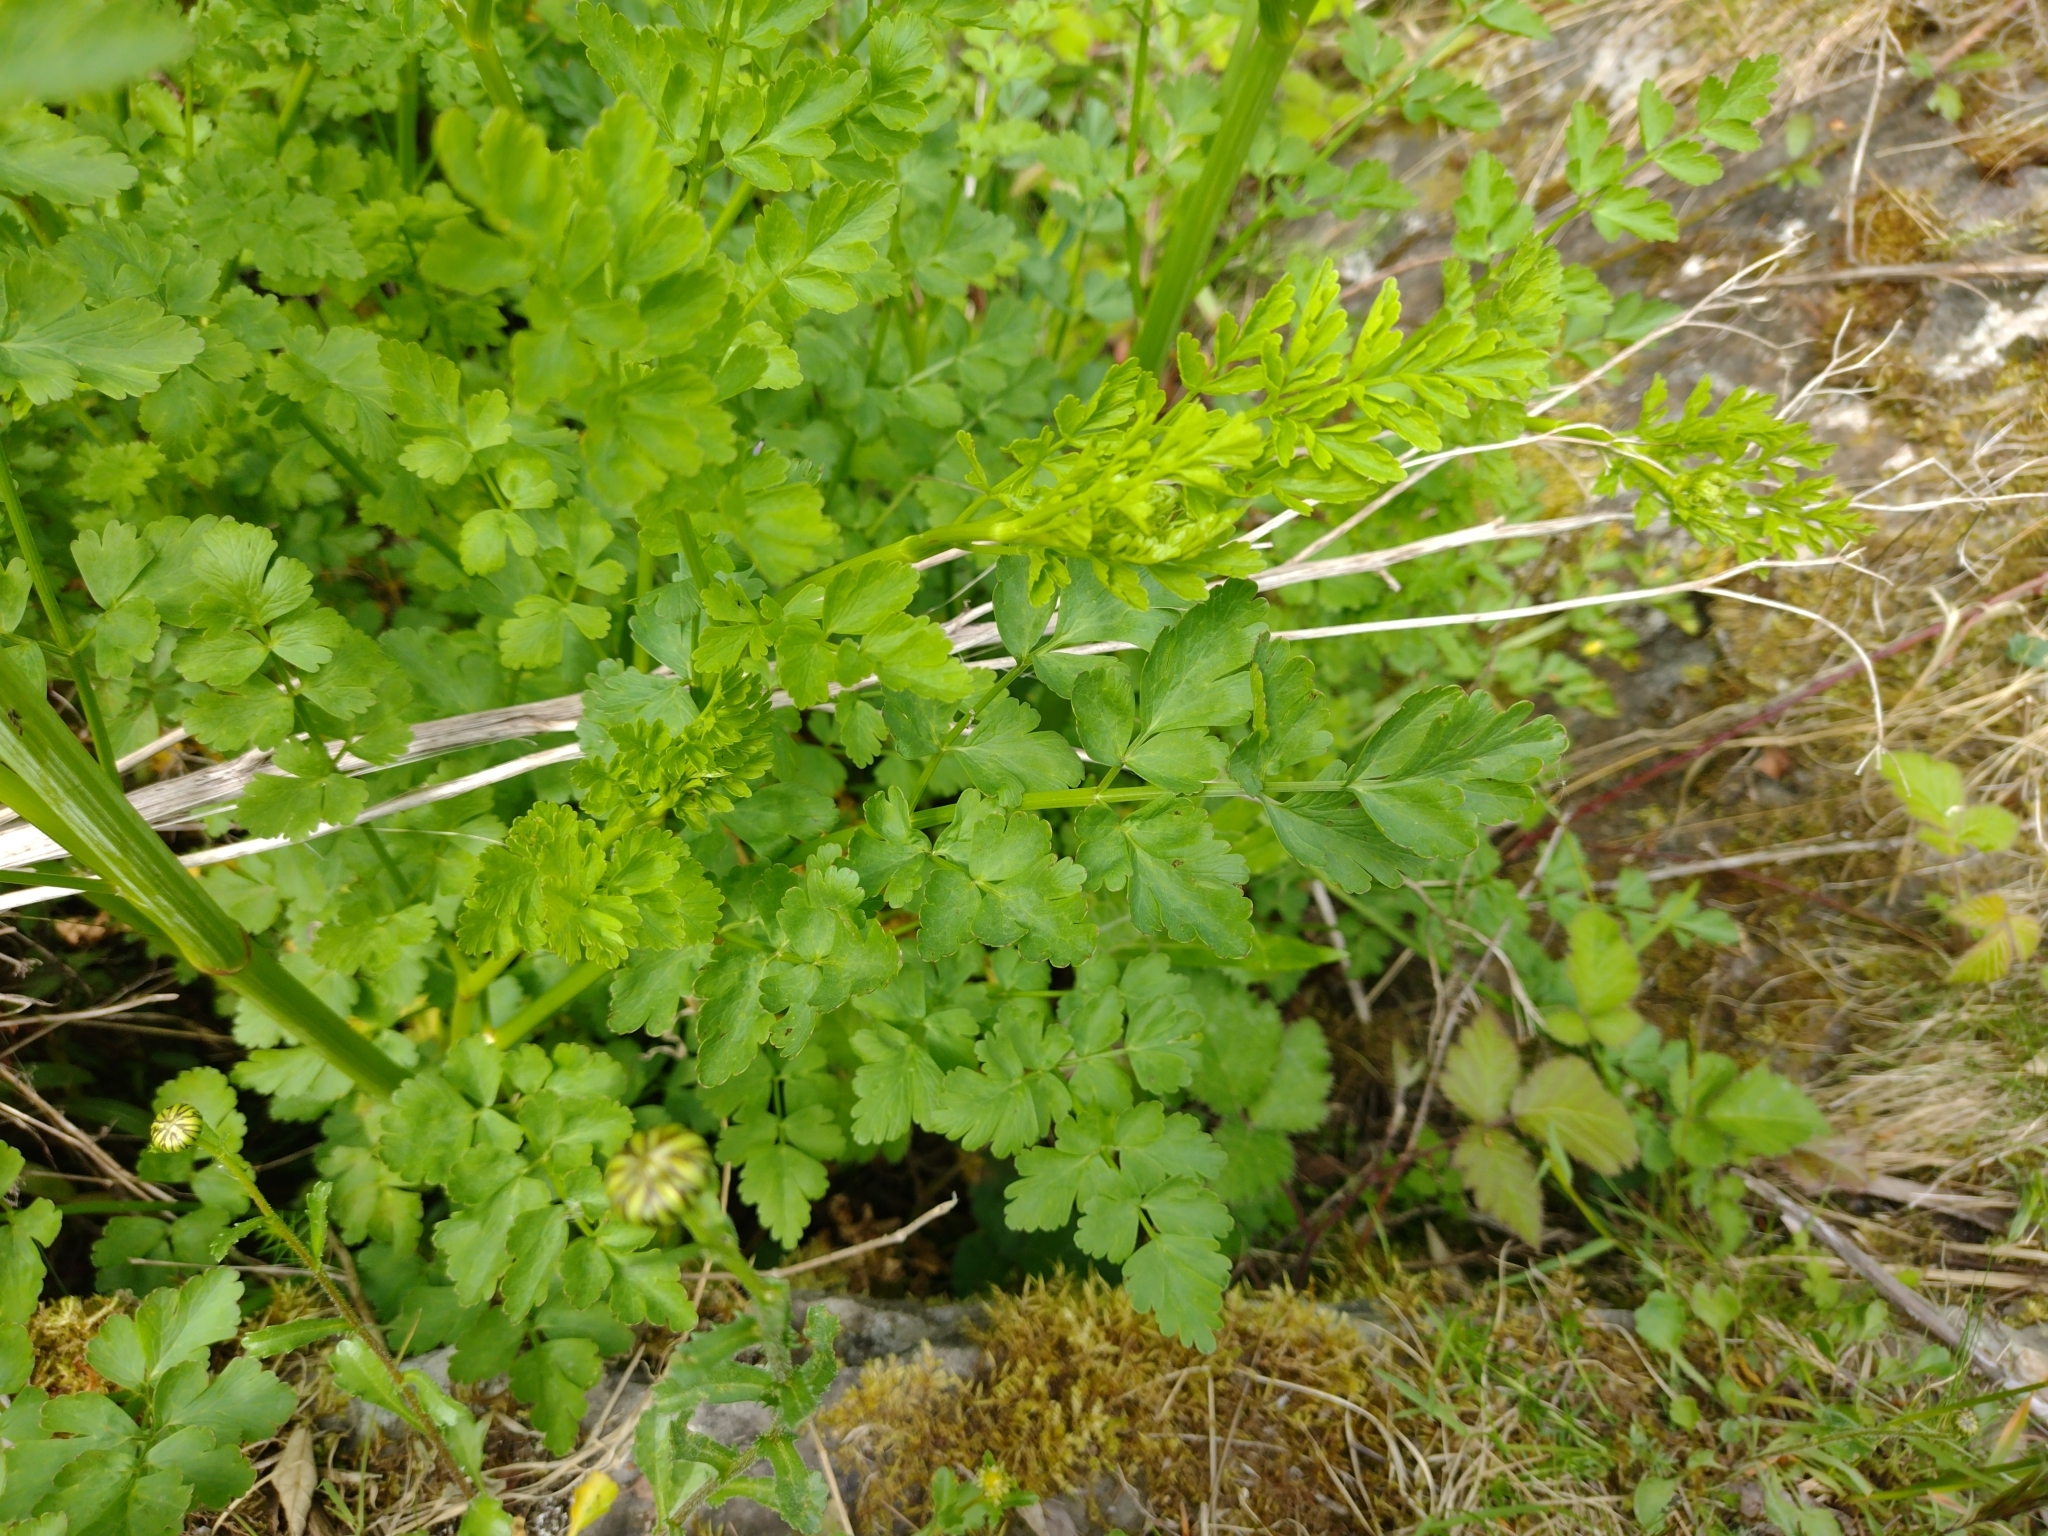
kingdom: Plantae
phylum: Tracheophyta
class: Magnoliopsida
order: Apiales
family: Apiaceae
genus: Oenanthe
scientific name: Oenanthe crocata
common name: Hemlock water-dropwort
